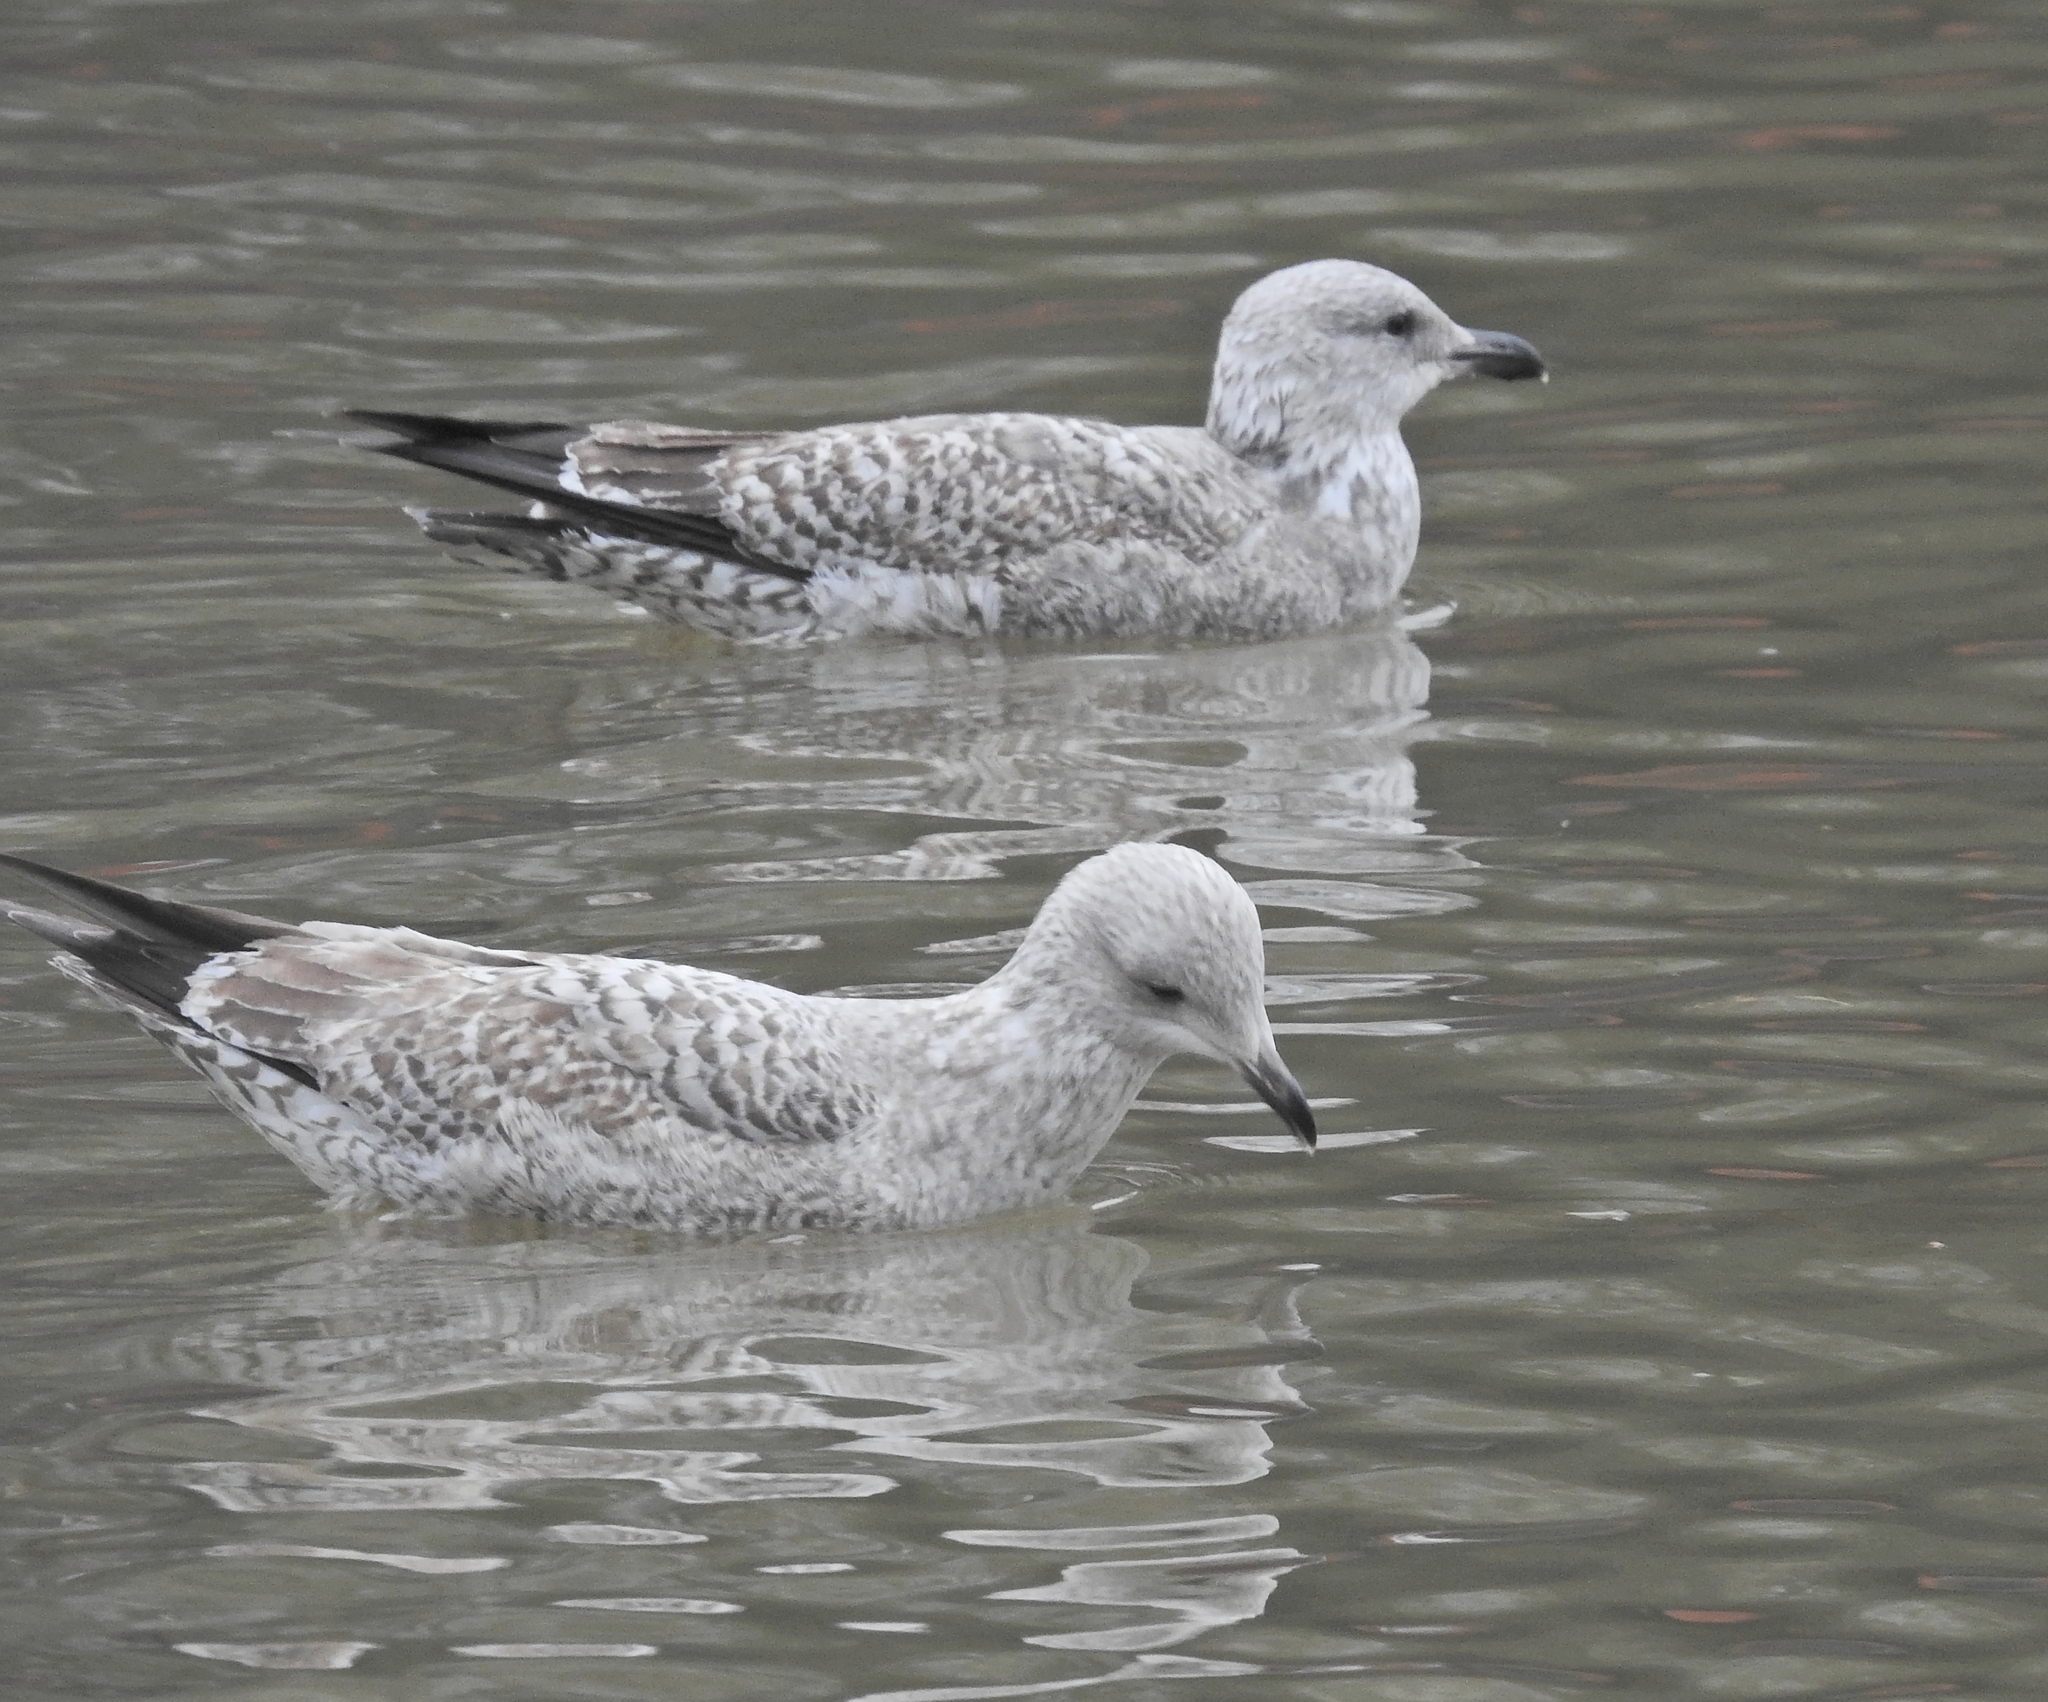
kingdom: Animalia
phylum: Chordata
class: Aves
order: Charadriiformes
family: Laridae
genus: Larus
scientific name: Larus argentatus
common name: Herring gull
